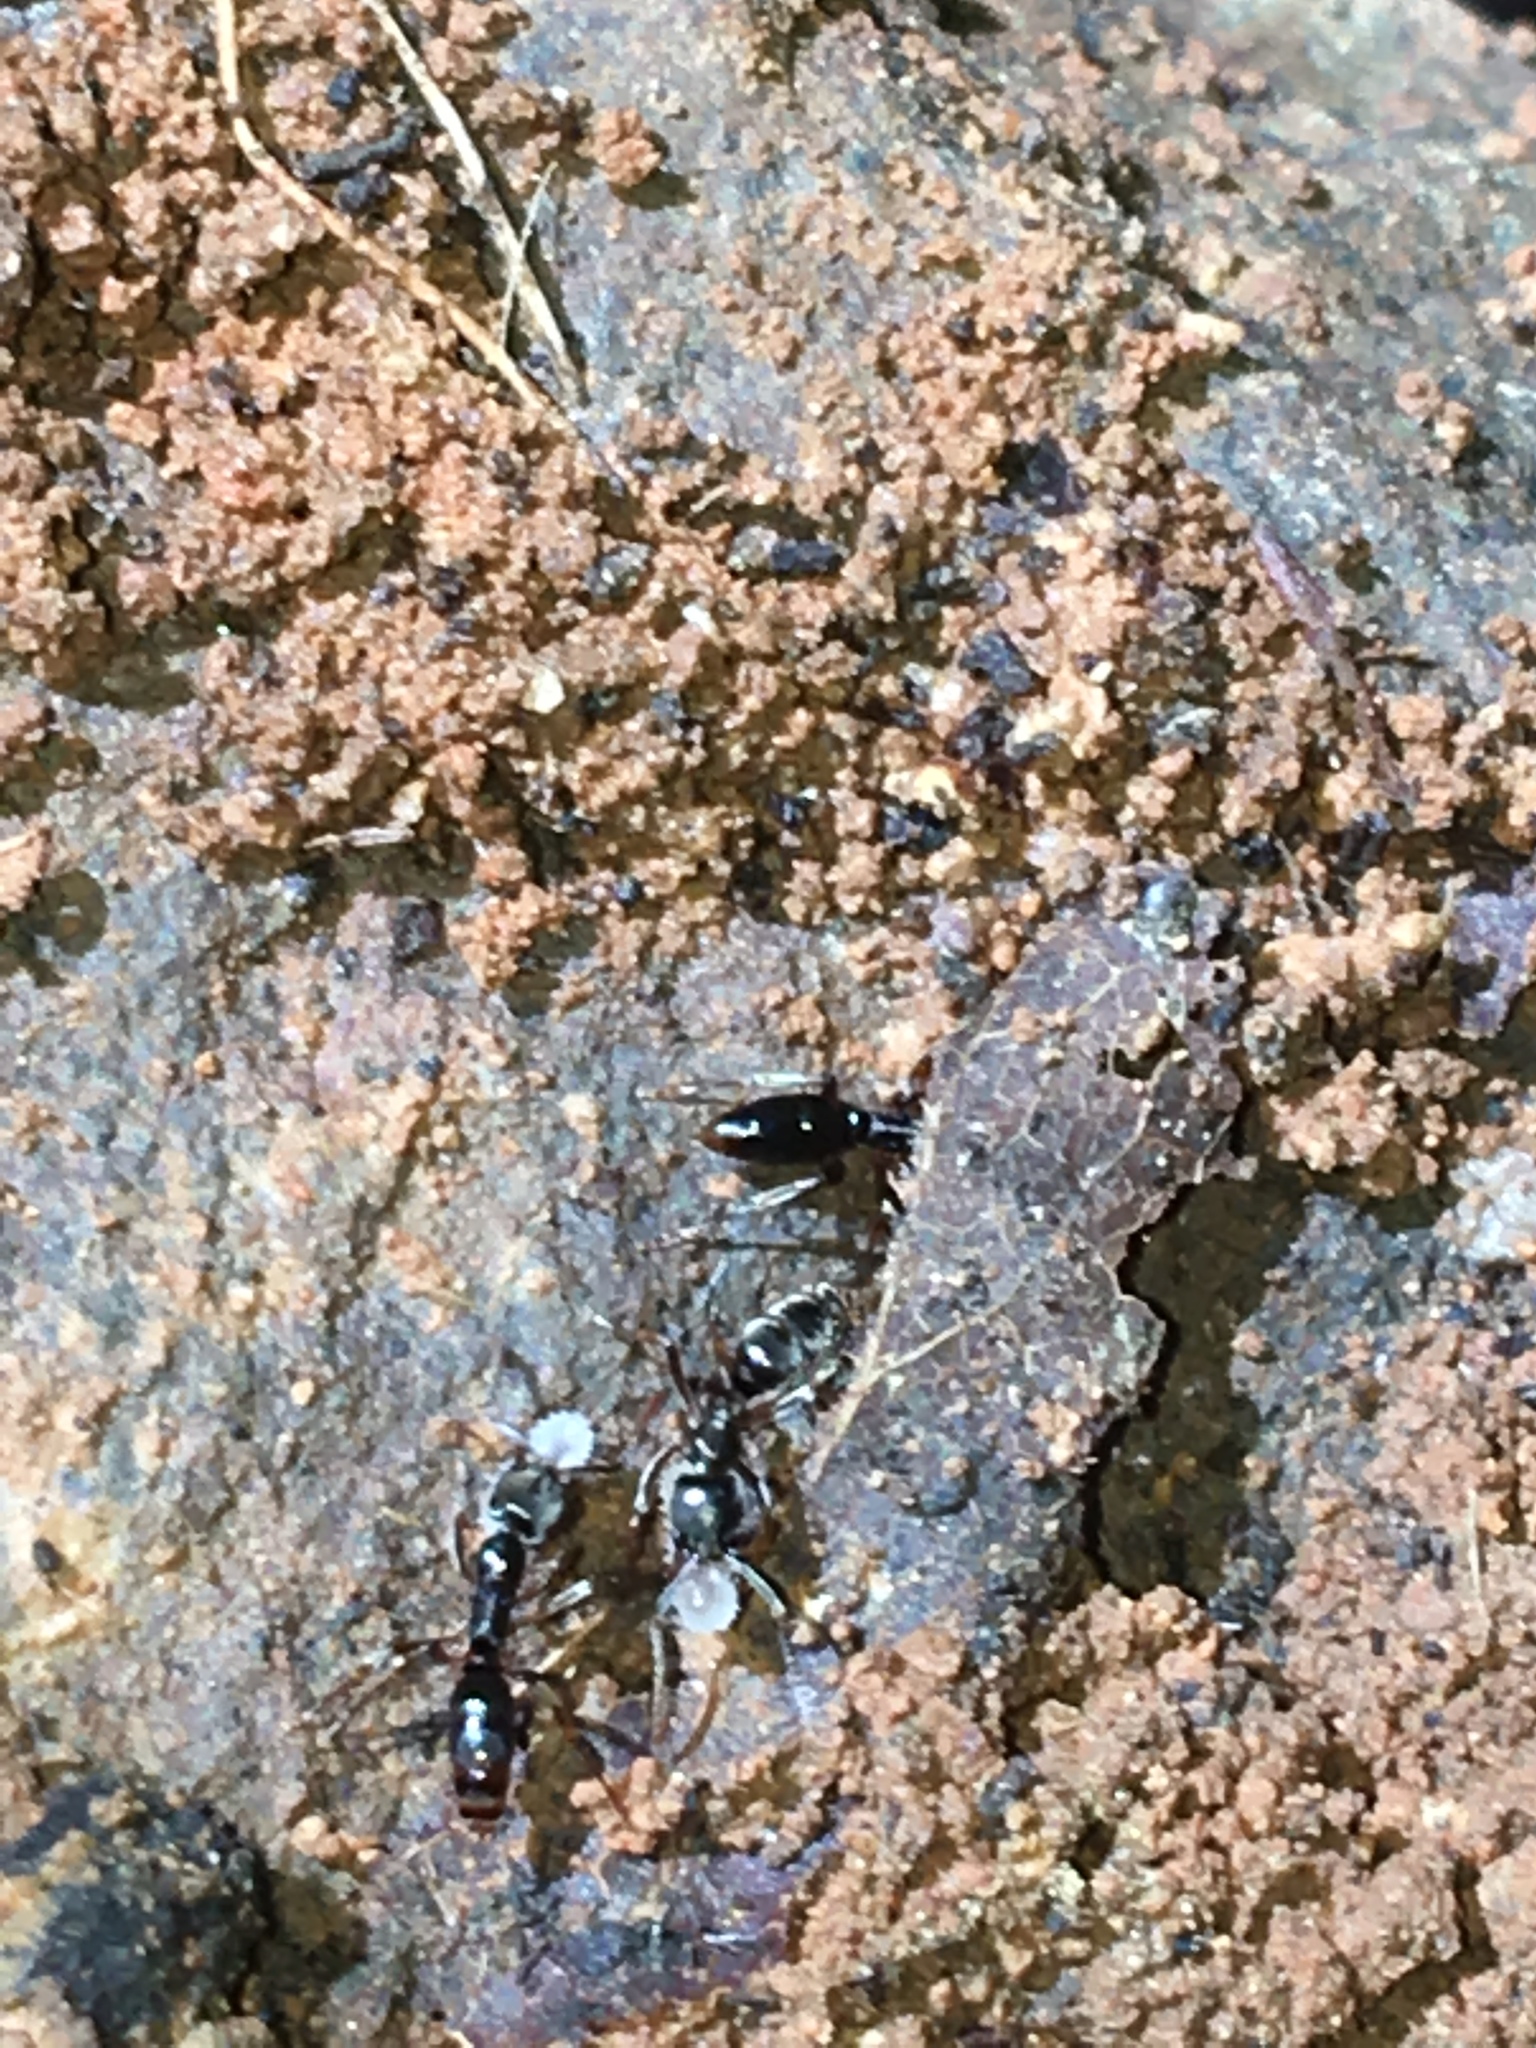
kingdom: Animalia
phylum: Arthropoda
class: Insecta
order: Hymenoptera
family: Formicidae
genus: Pachycondyla
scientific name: Pachycondyla chinensis
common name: Asian needle ant
